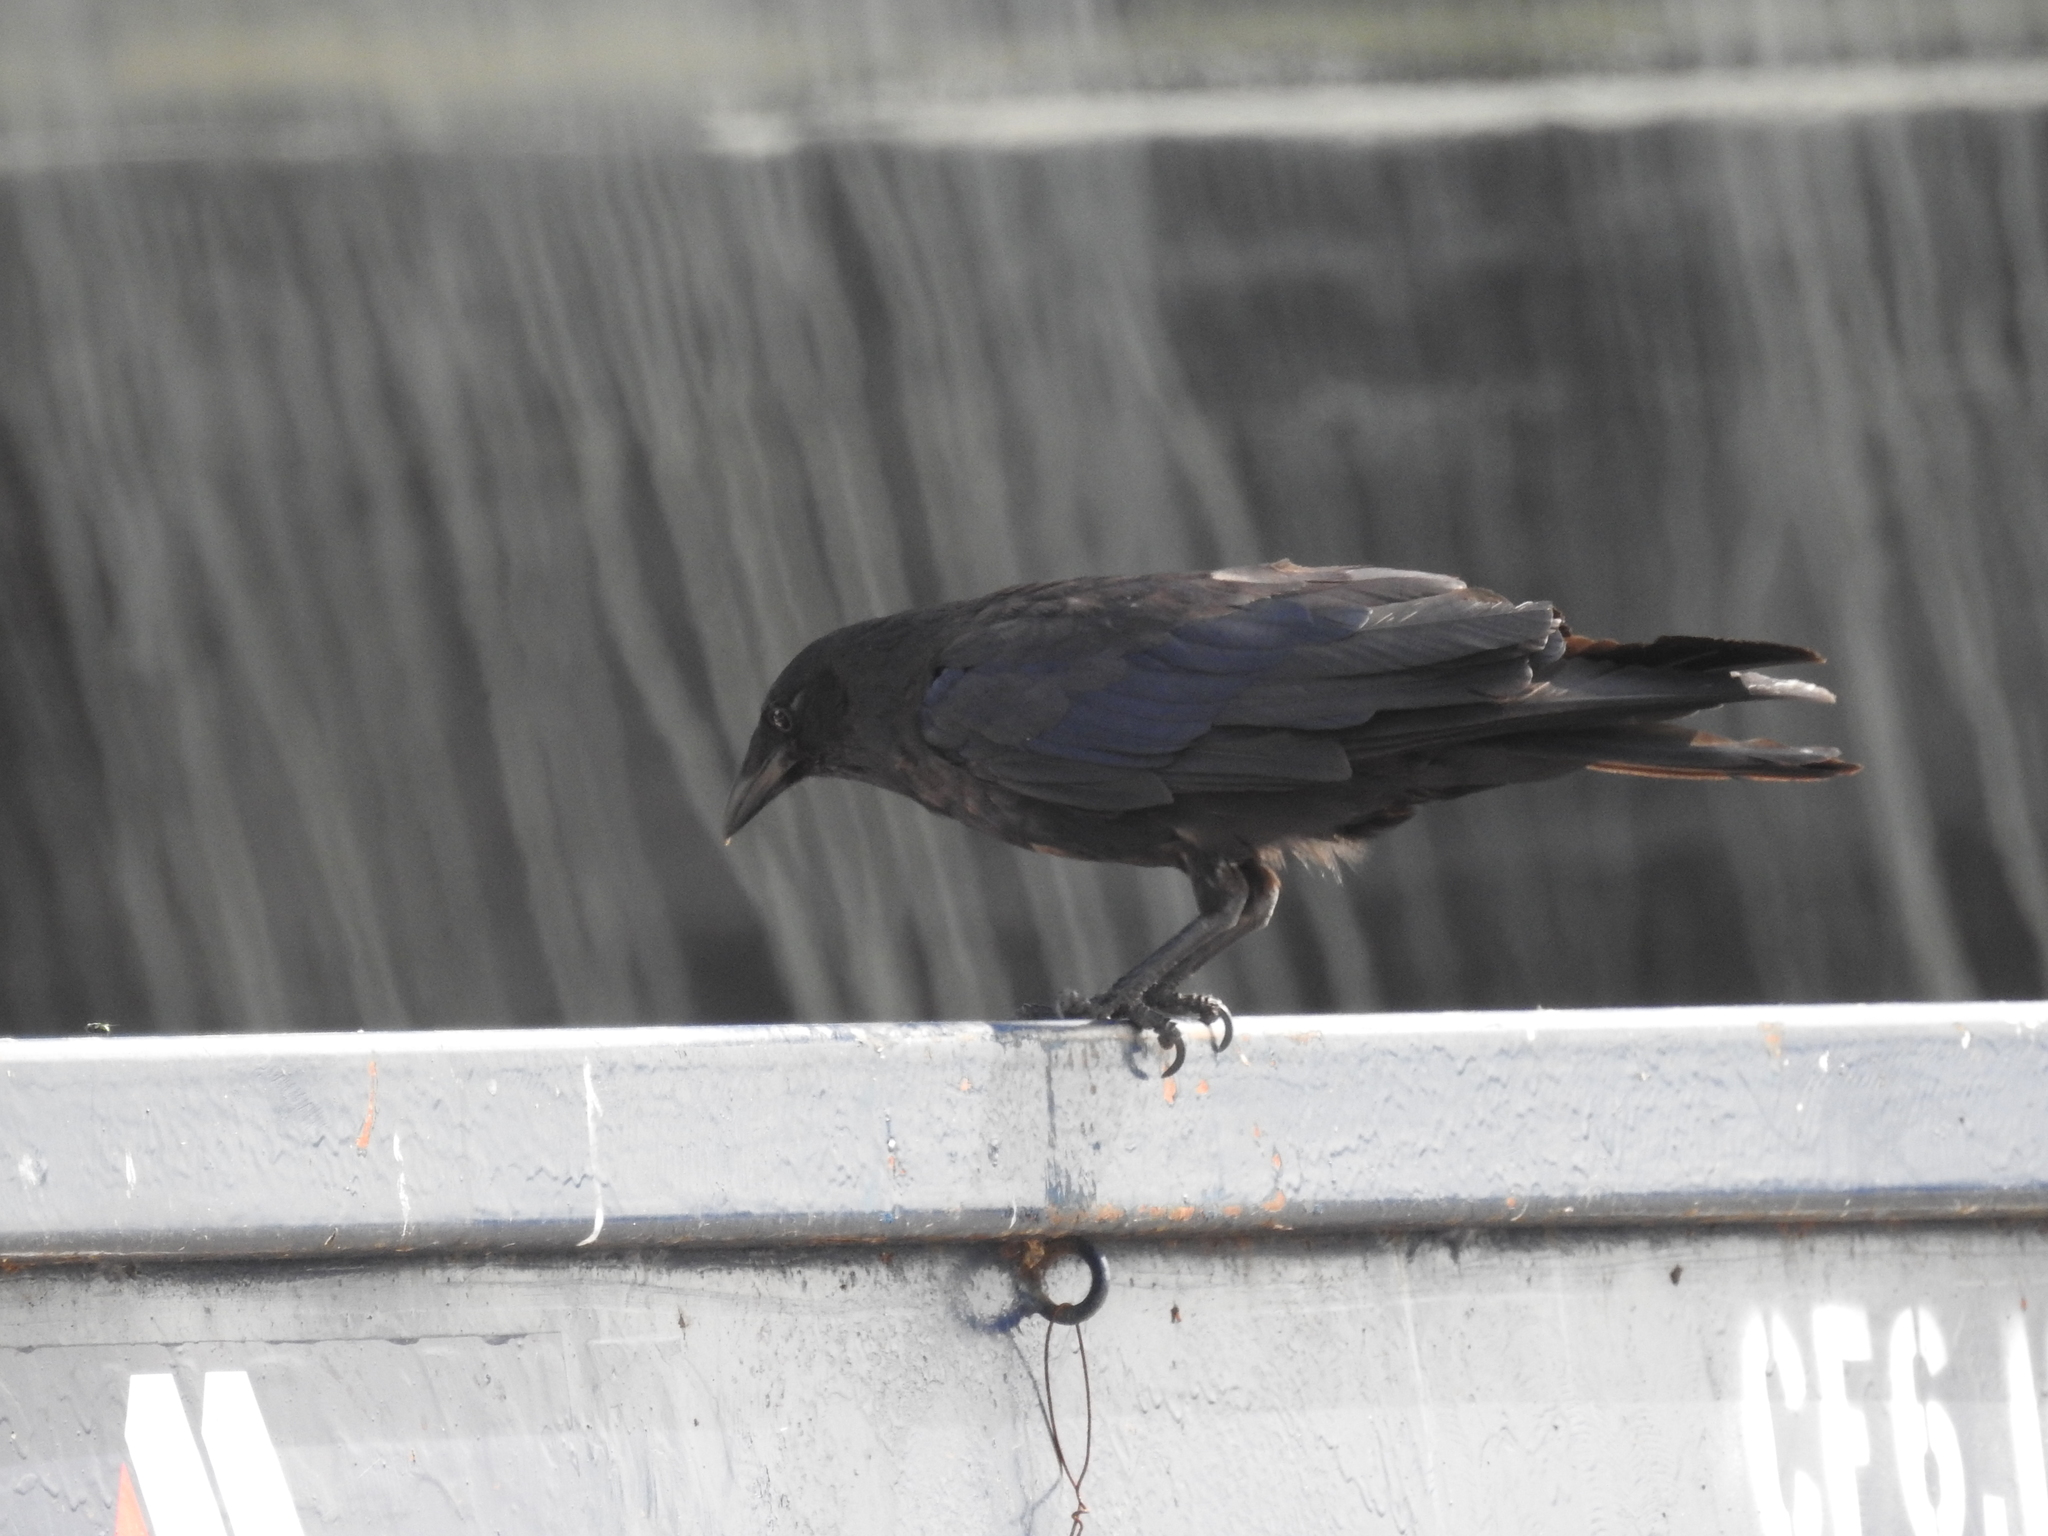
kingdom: Animalia
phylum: Chordata
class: Aves
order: Passeriformes
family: Corvidae
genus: Corvus
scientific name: Corvus ossifragus
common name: Fish crow
